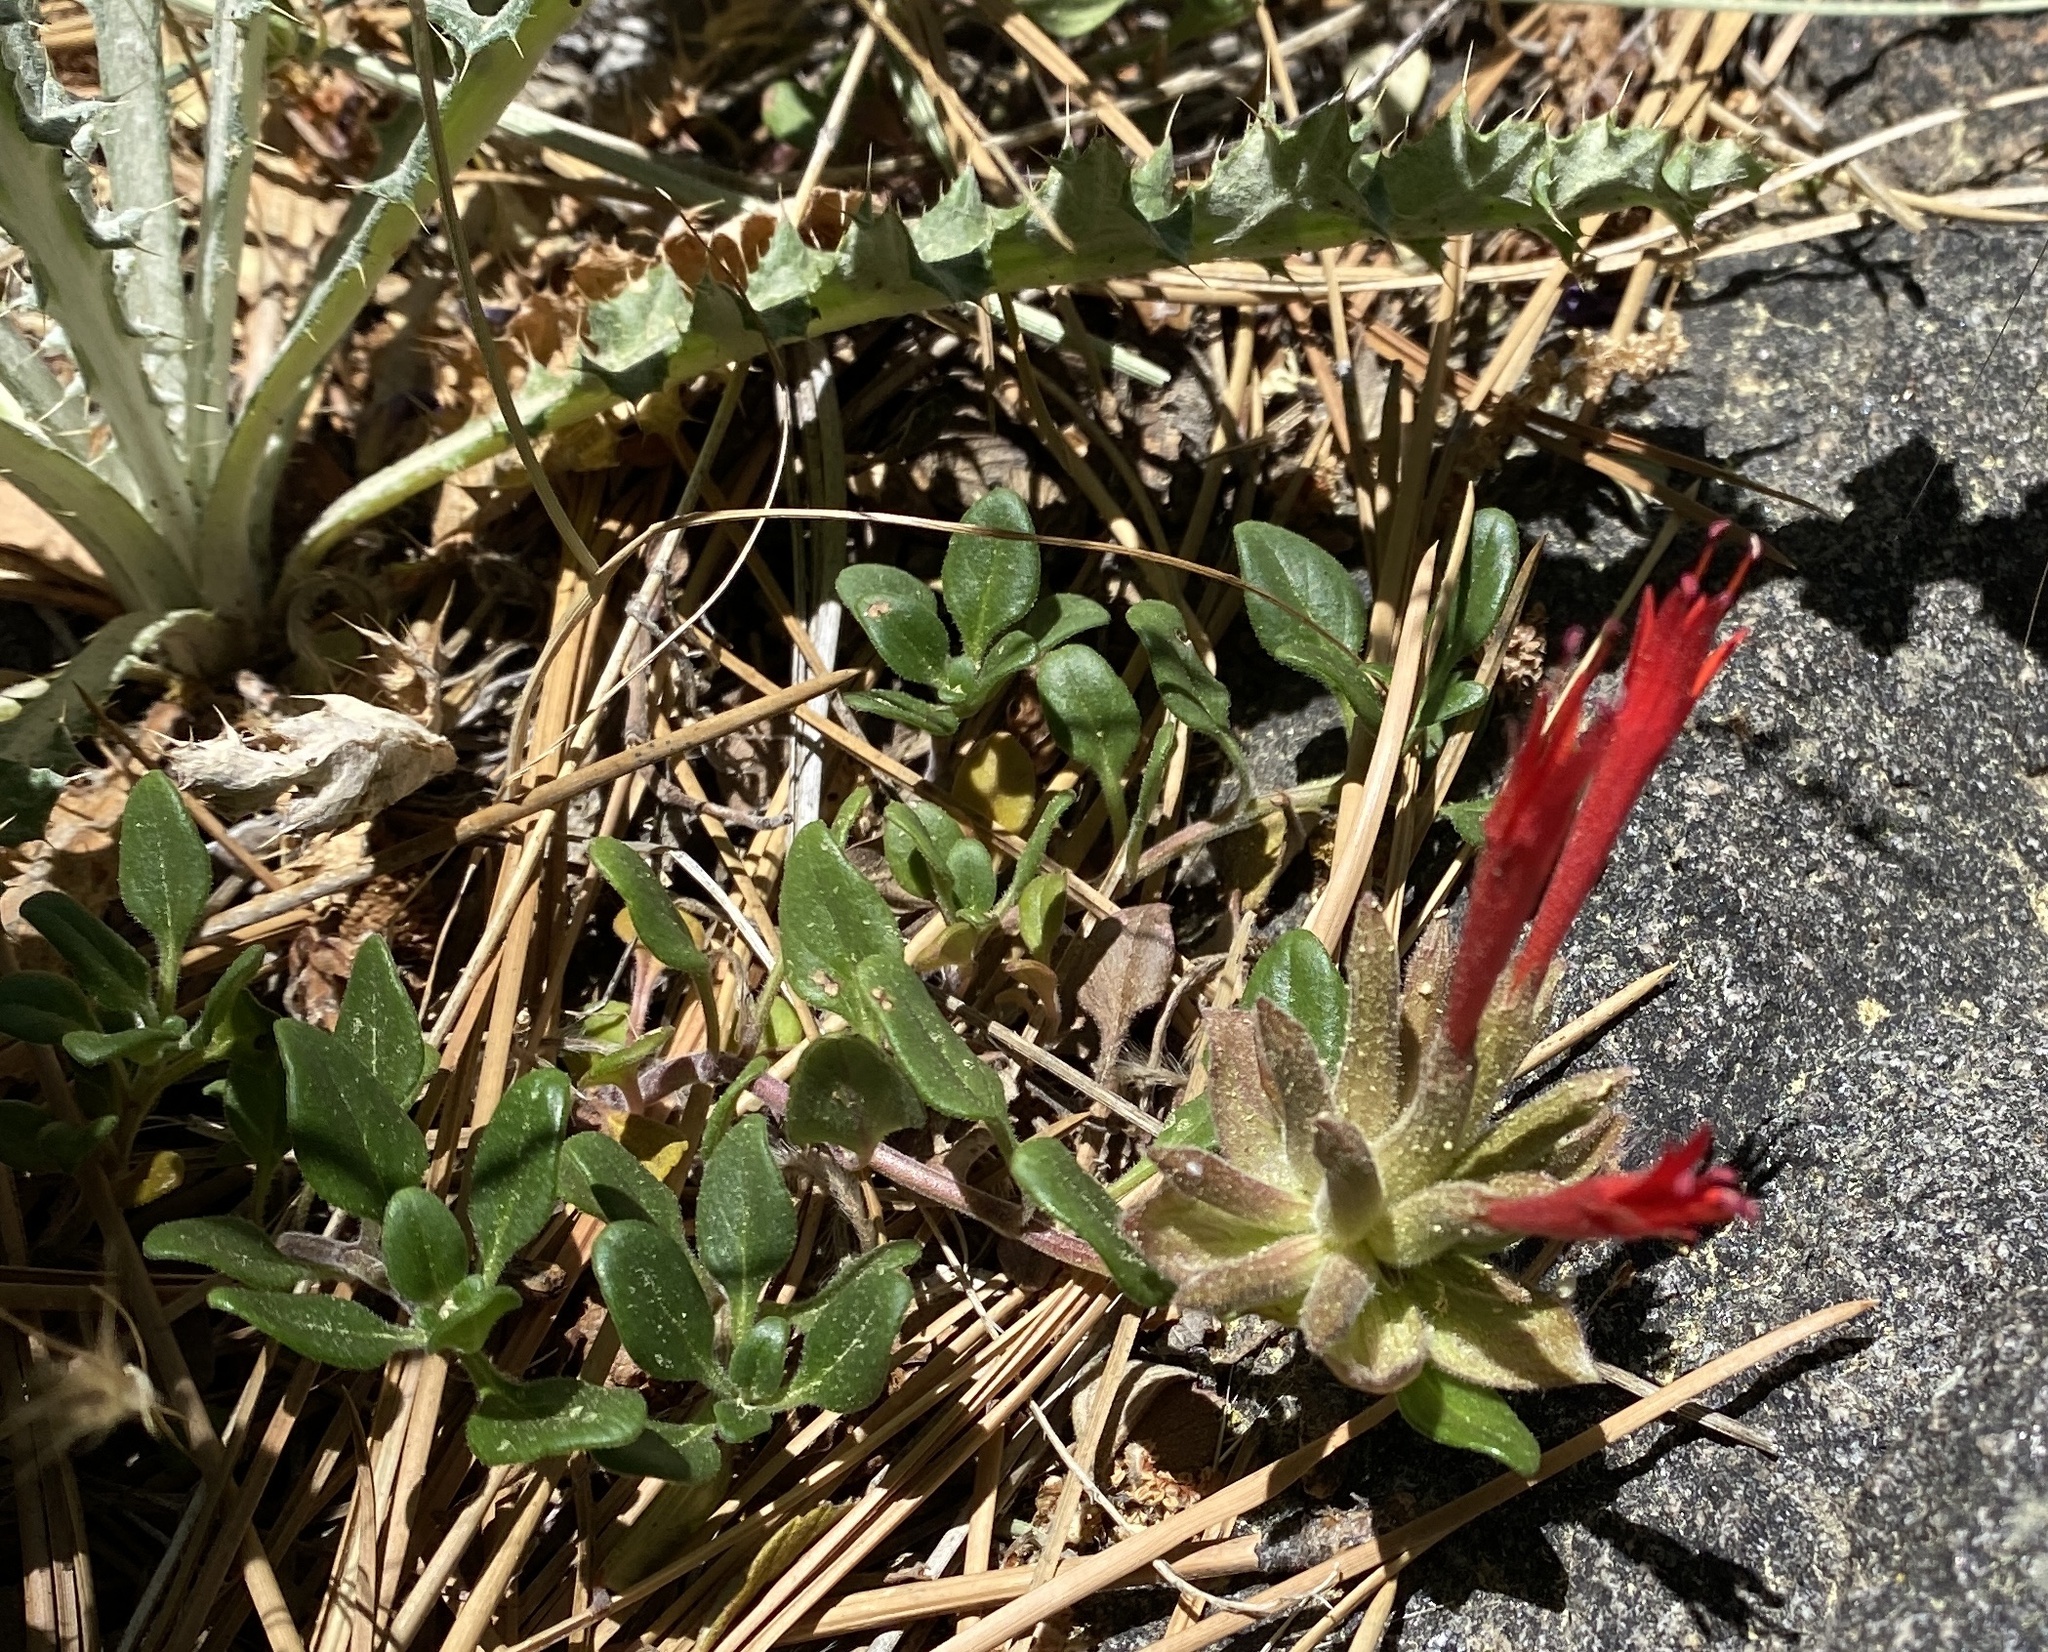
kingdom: Plantae
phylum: Tracheophyta
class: Magnoliopsida
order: Lamiales
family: Lamiaceae
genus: Monardella
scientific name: Monardella macrantha
